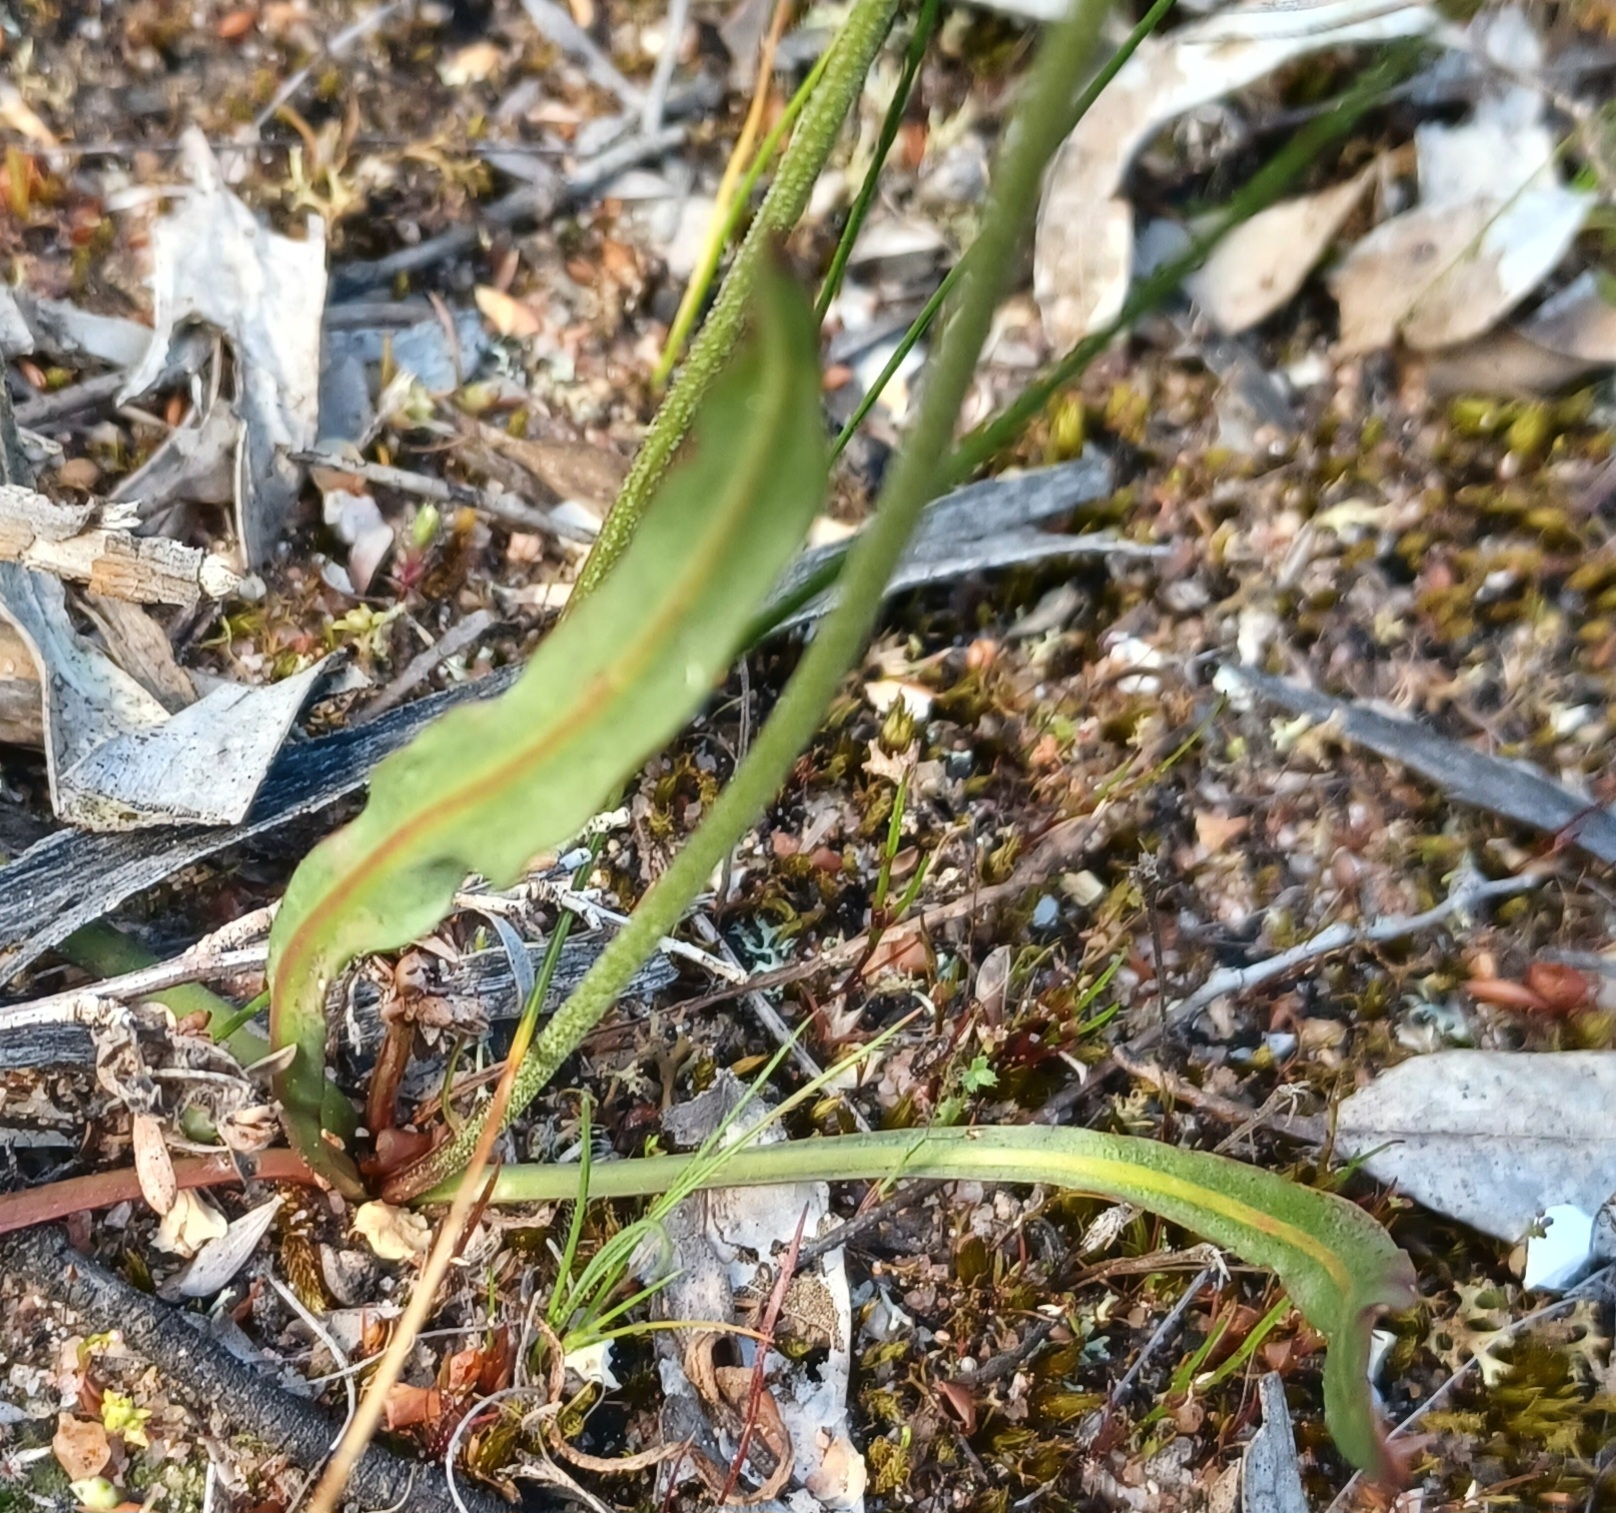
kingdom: Plantae
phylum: Tracheophyta
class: Magnoliopsida
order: Asterales
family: Asteraceae
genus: Microseris
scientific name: Microseris lanceolata
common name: Yam daisy
